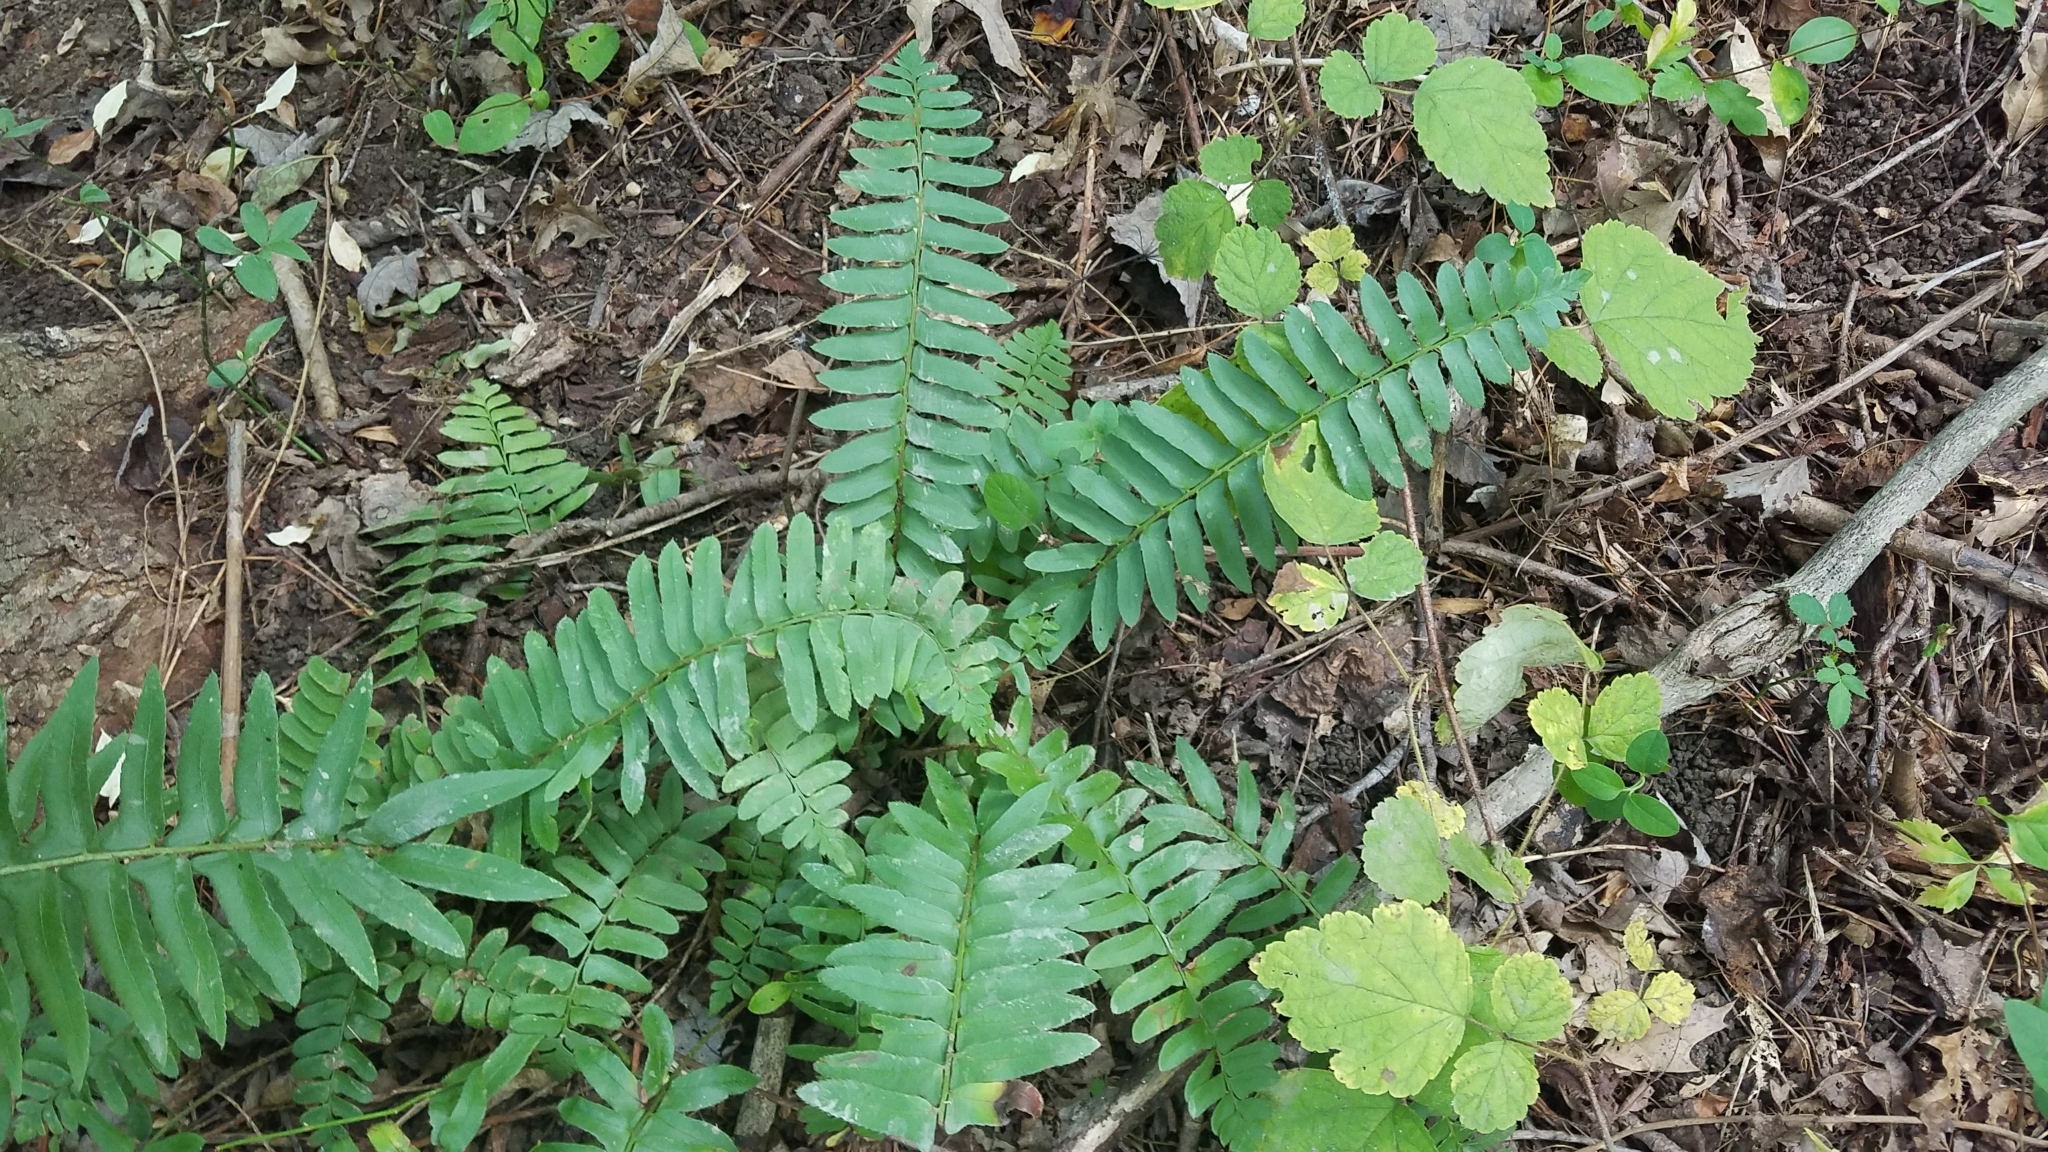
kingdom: Plantae
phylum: Tracheophyta
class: Polypodiopsida
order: Polypodiales
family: Dryopteridaceae
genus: Polystichum
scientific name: Polystichum acrostichoides
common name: Christmas fern
